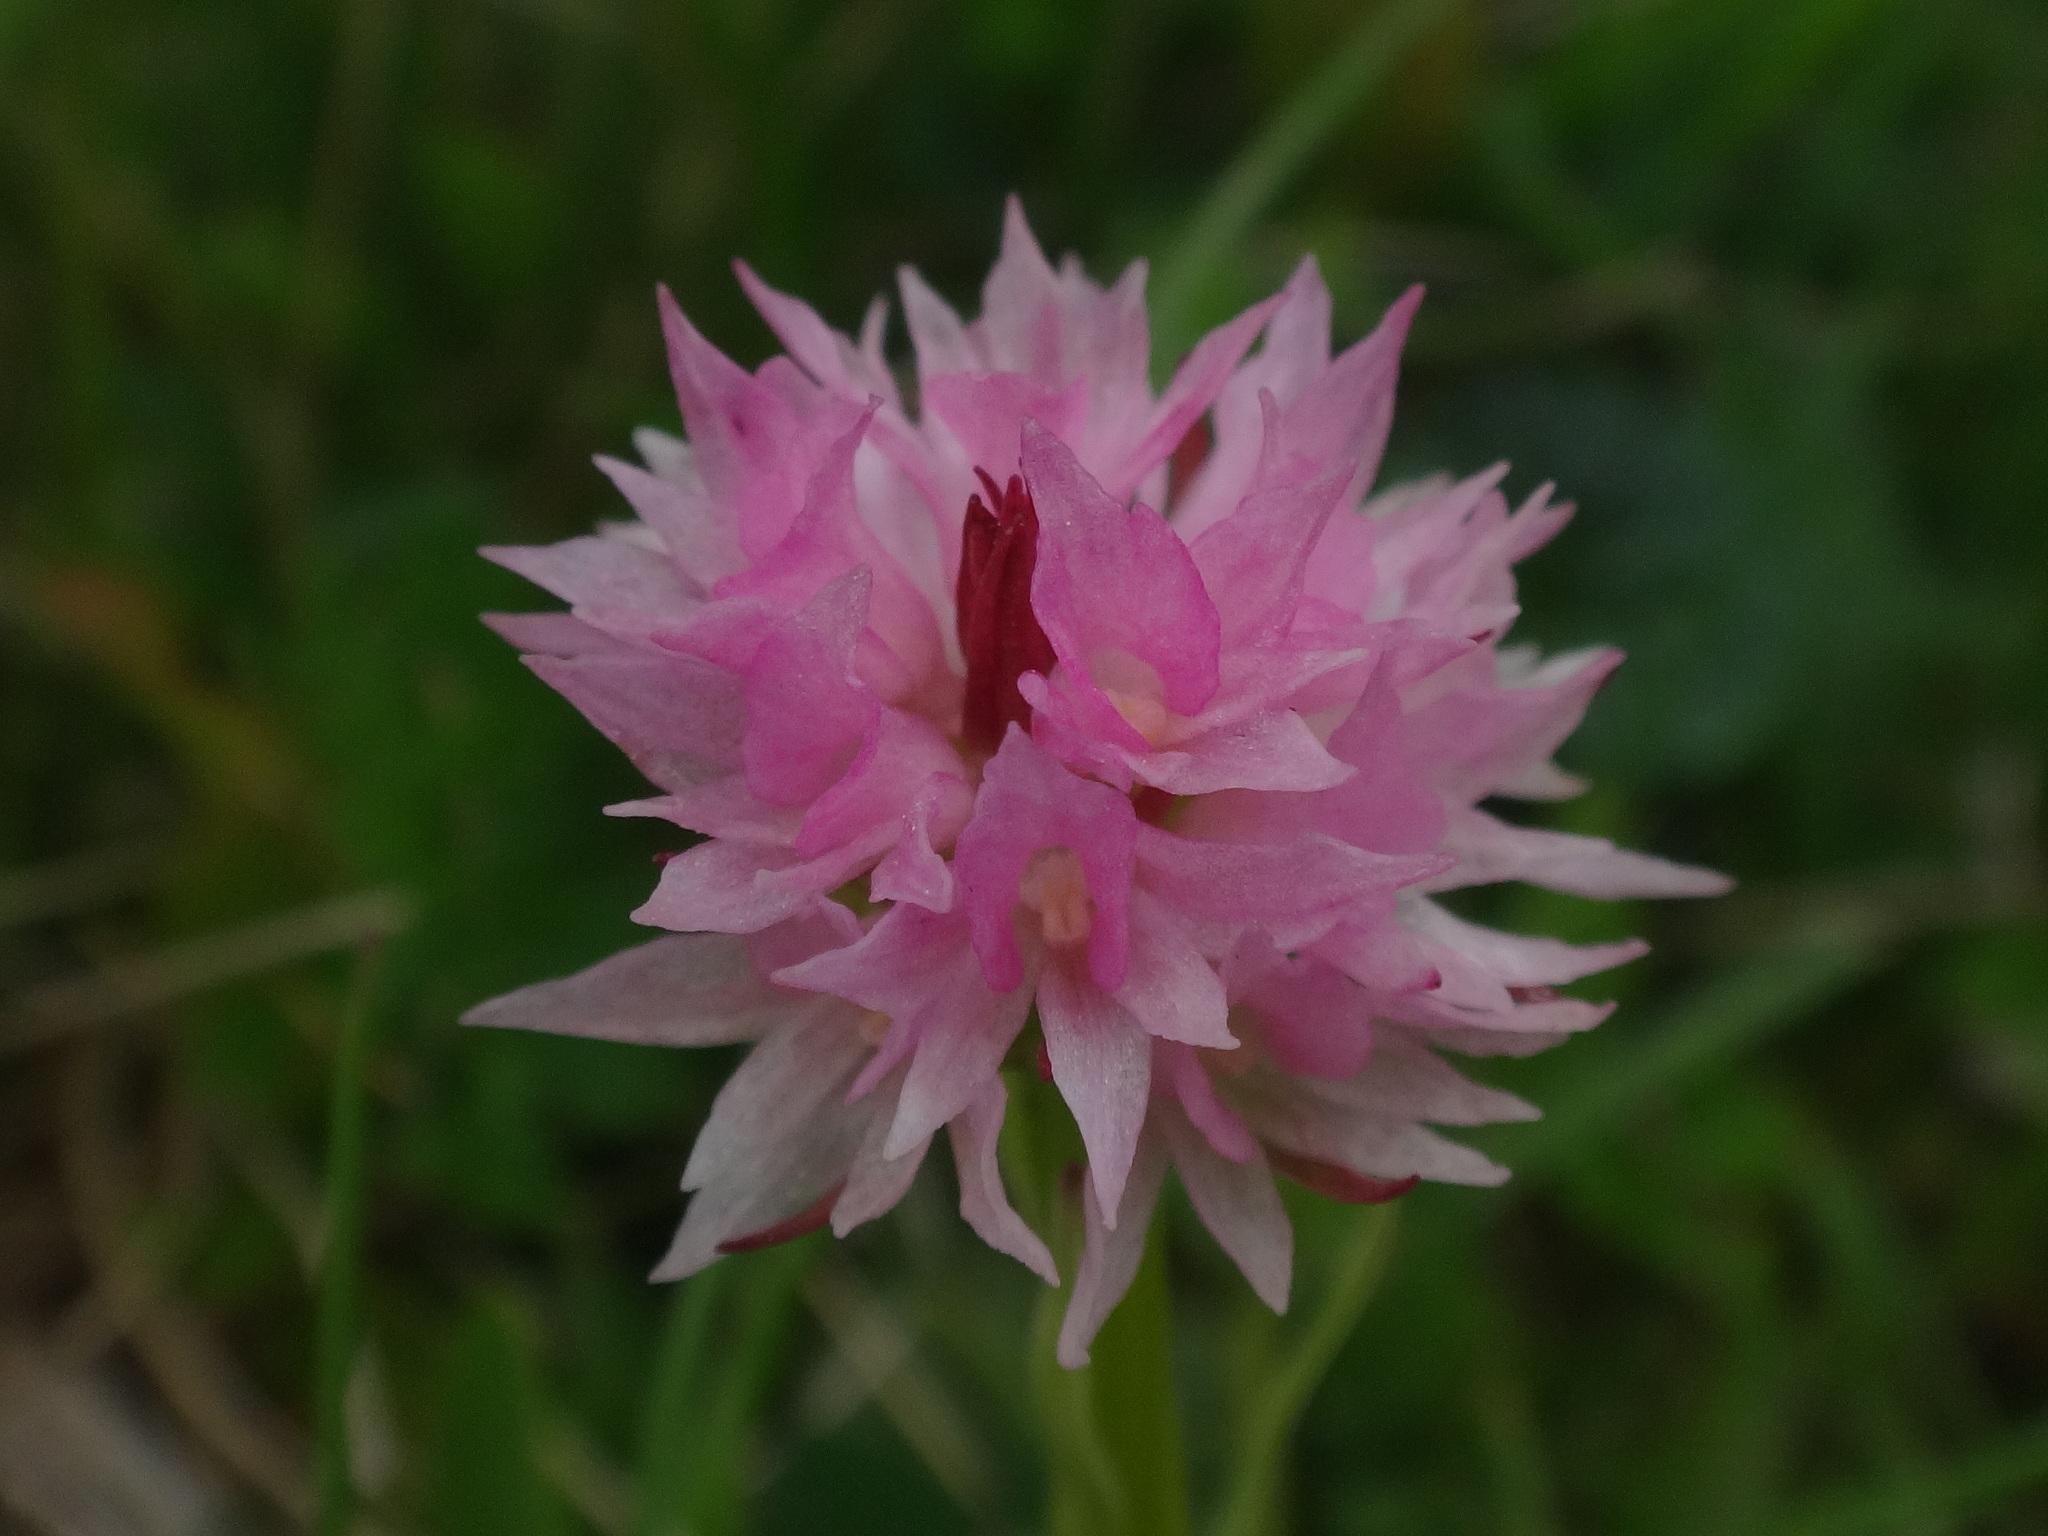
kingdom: Plantae
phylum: Tracheophyta
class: Liliopsida
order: Asparagales
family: Orchidaceae
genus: Gymnadenia
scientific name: Gymnadenia widderi
